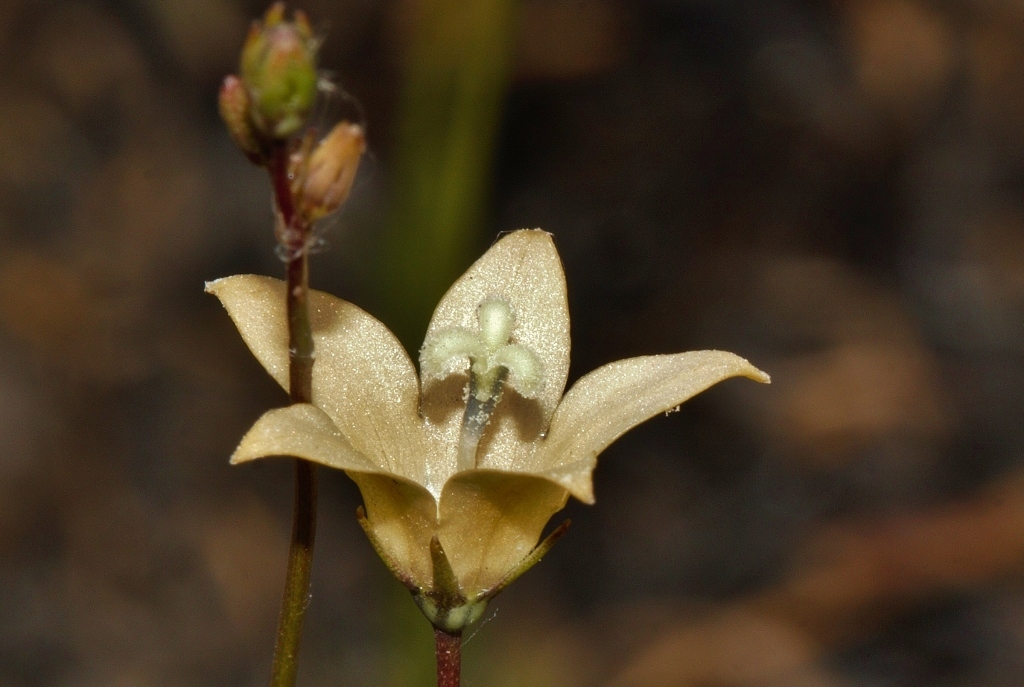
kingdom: Plantae
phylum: Tracheophyta
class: Magnoliopsida
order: Asterales
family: Campanulaceae
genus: Wahlenbergia
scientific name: Wahlenbergia undulata
